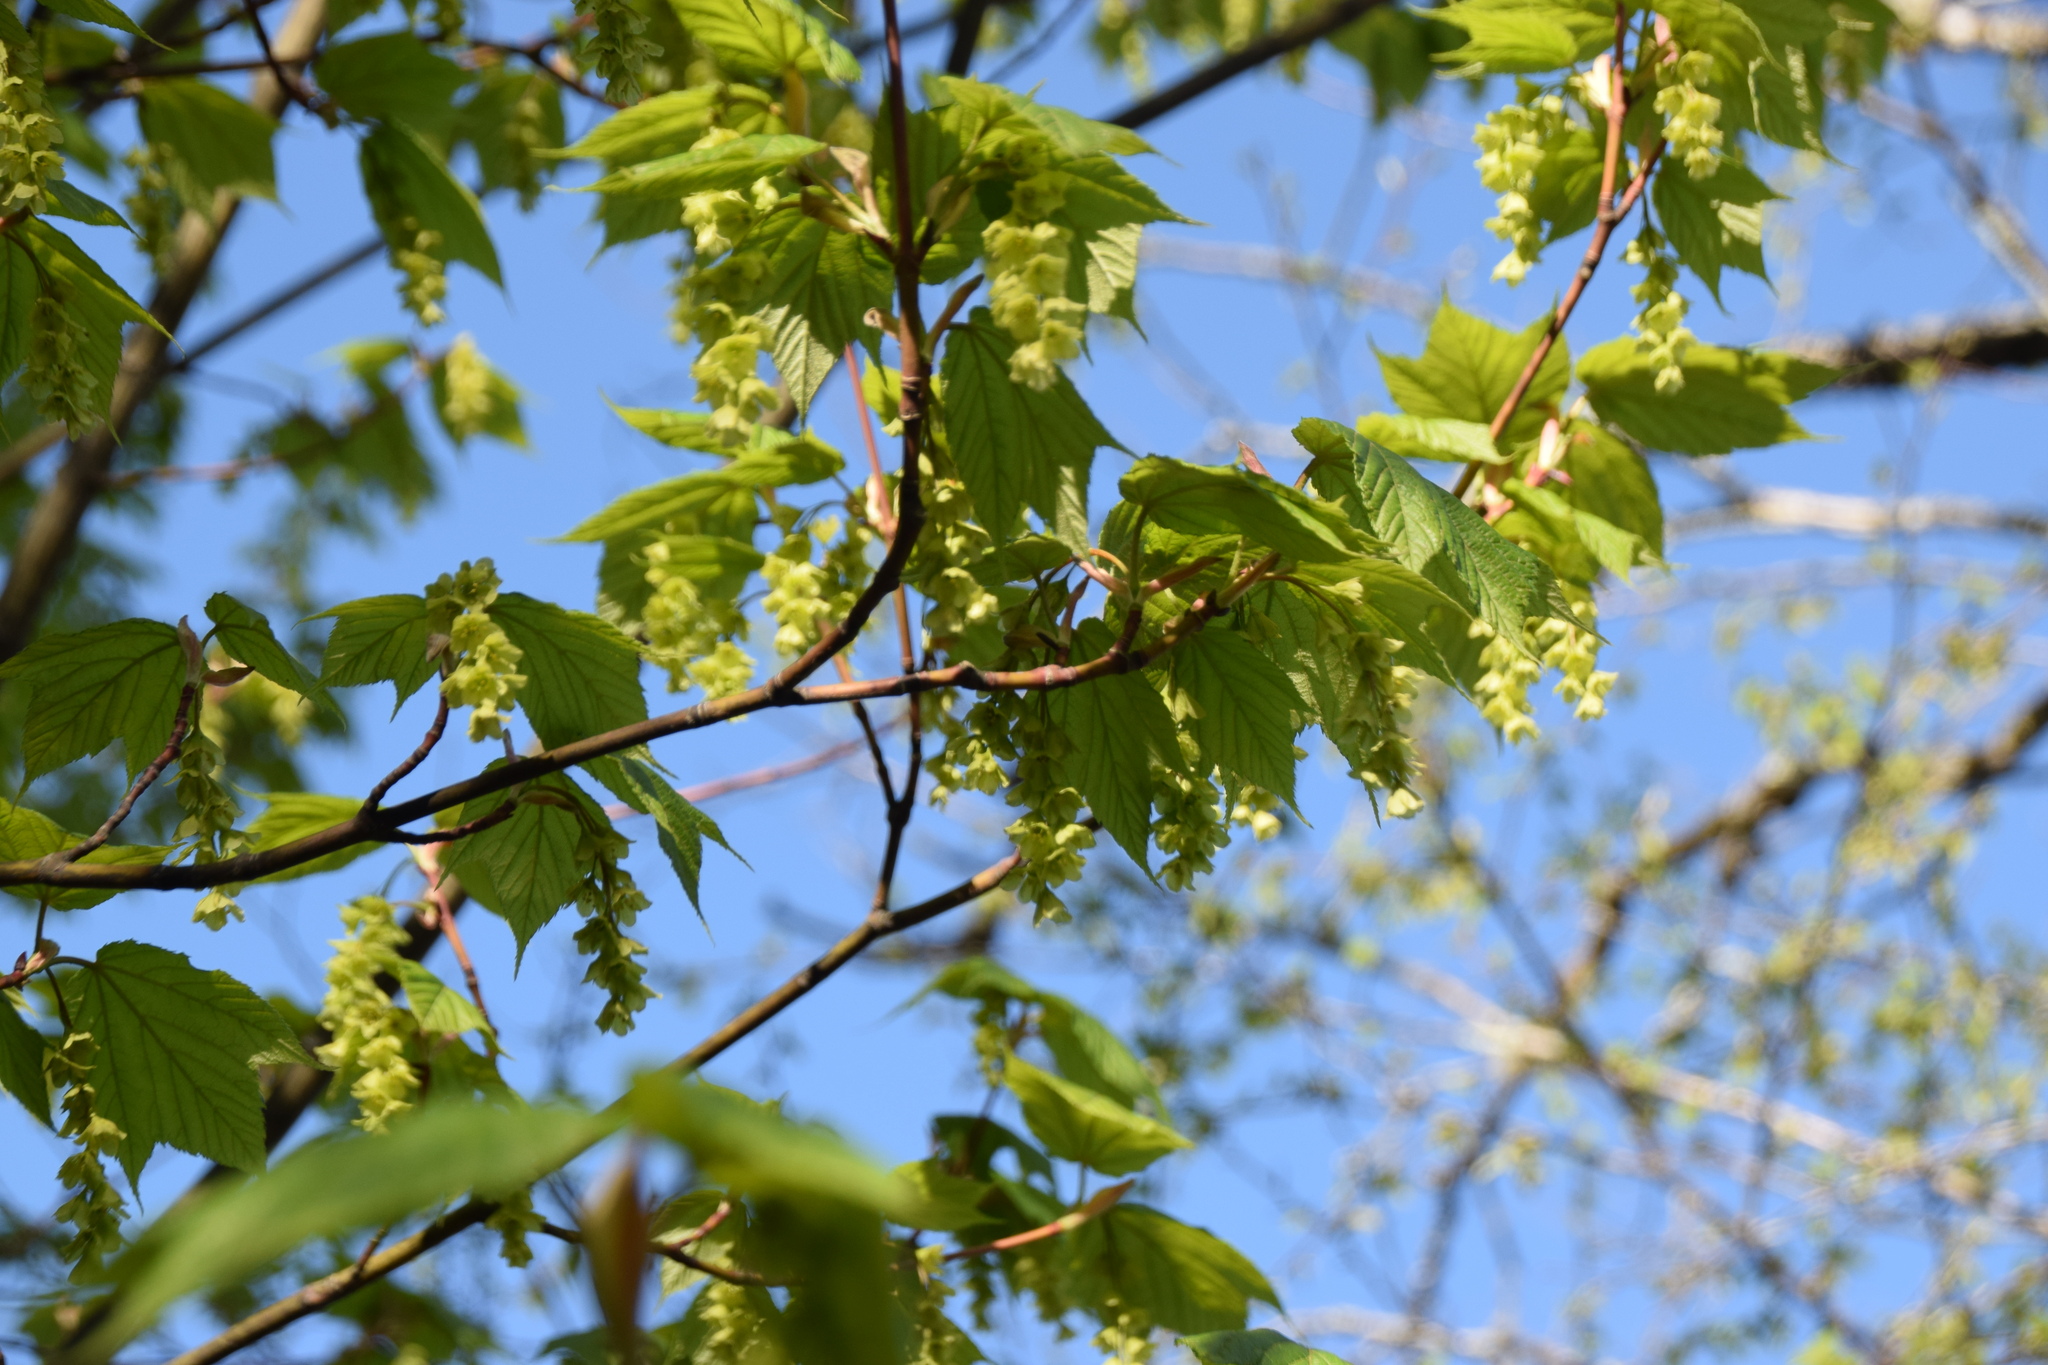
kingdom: Plantae
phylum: Tracheophyta
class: Magnoliopsida
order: Sapindales
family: Sapindaceae
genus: Acer
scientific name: Acer pensylvanicum
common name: Moosewood
